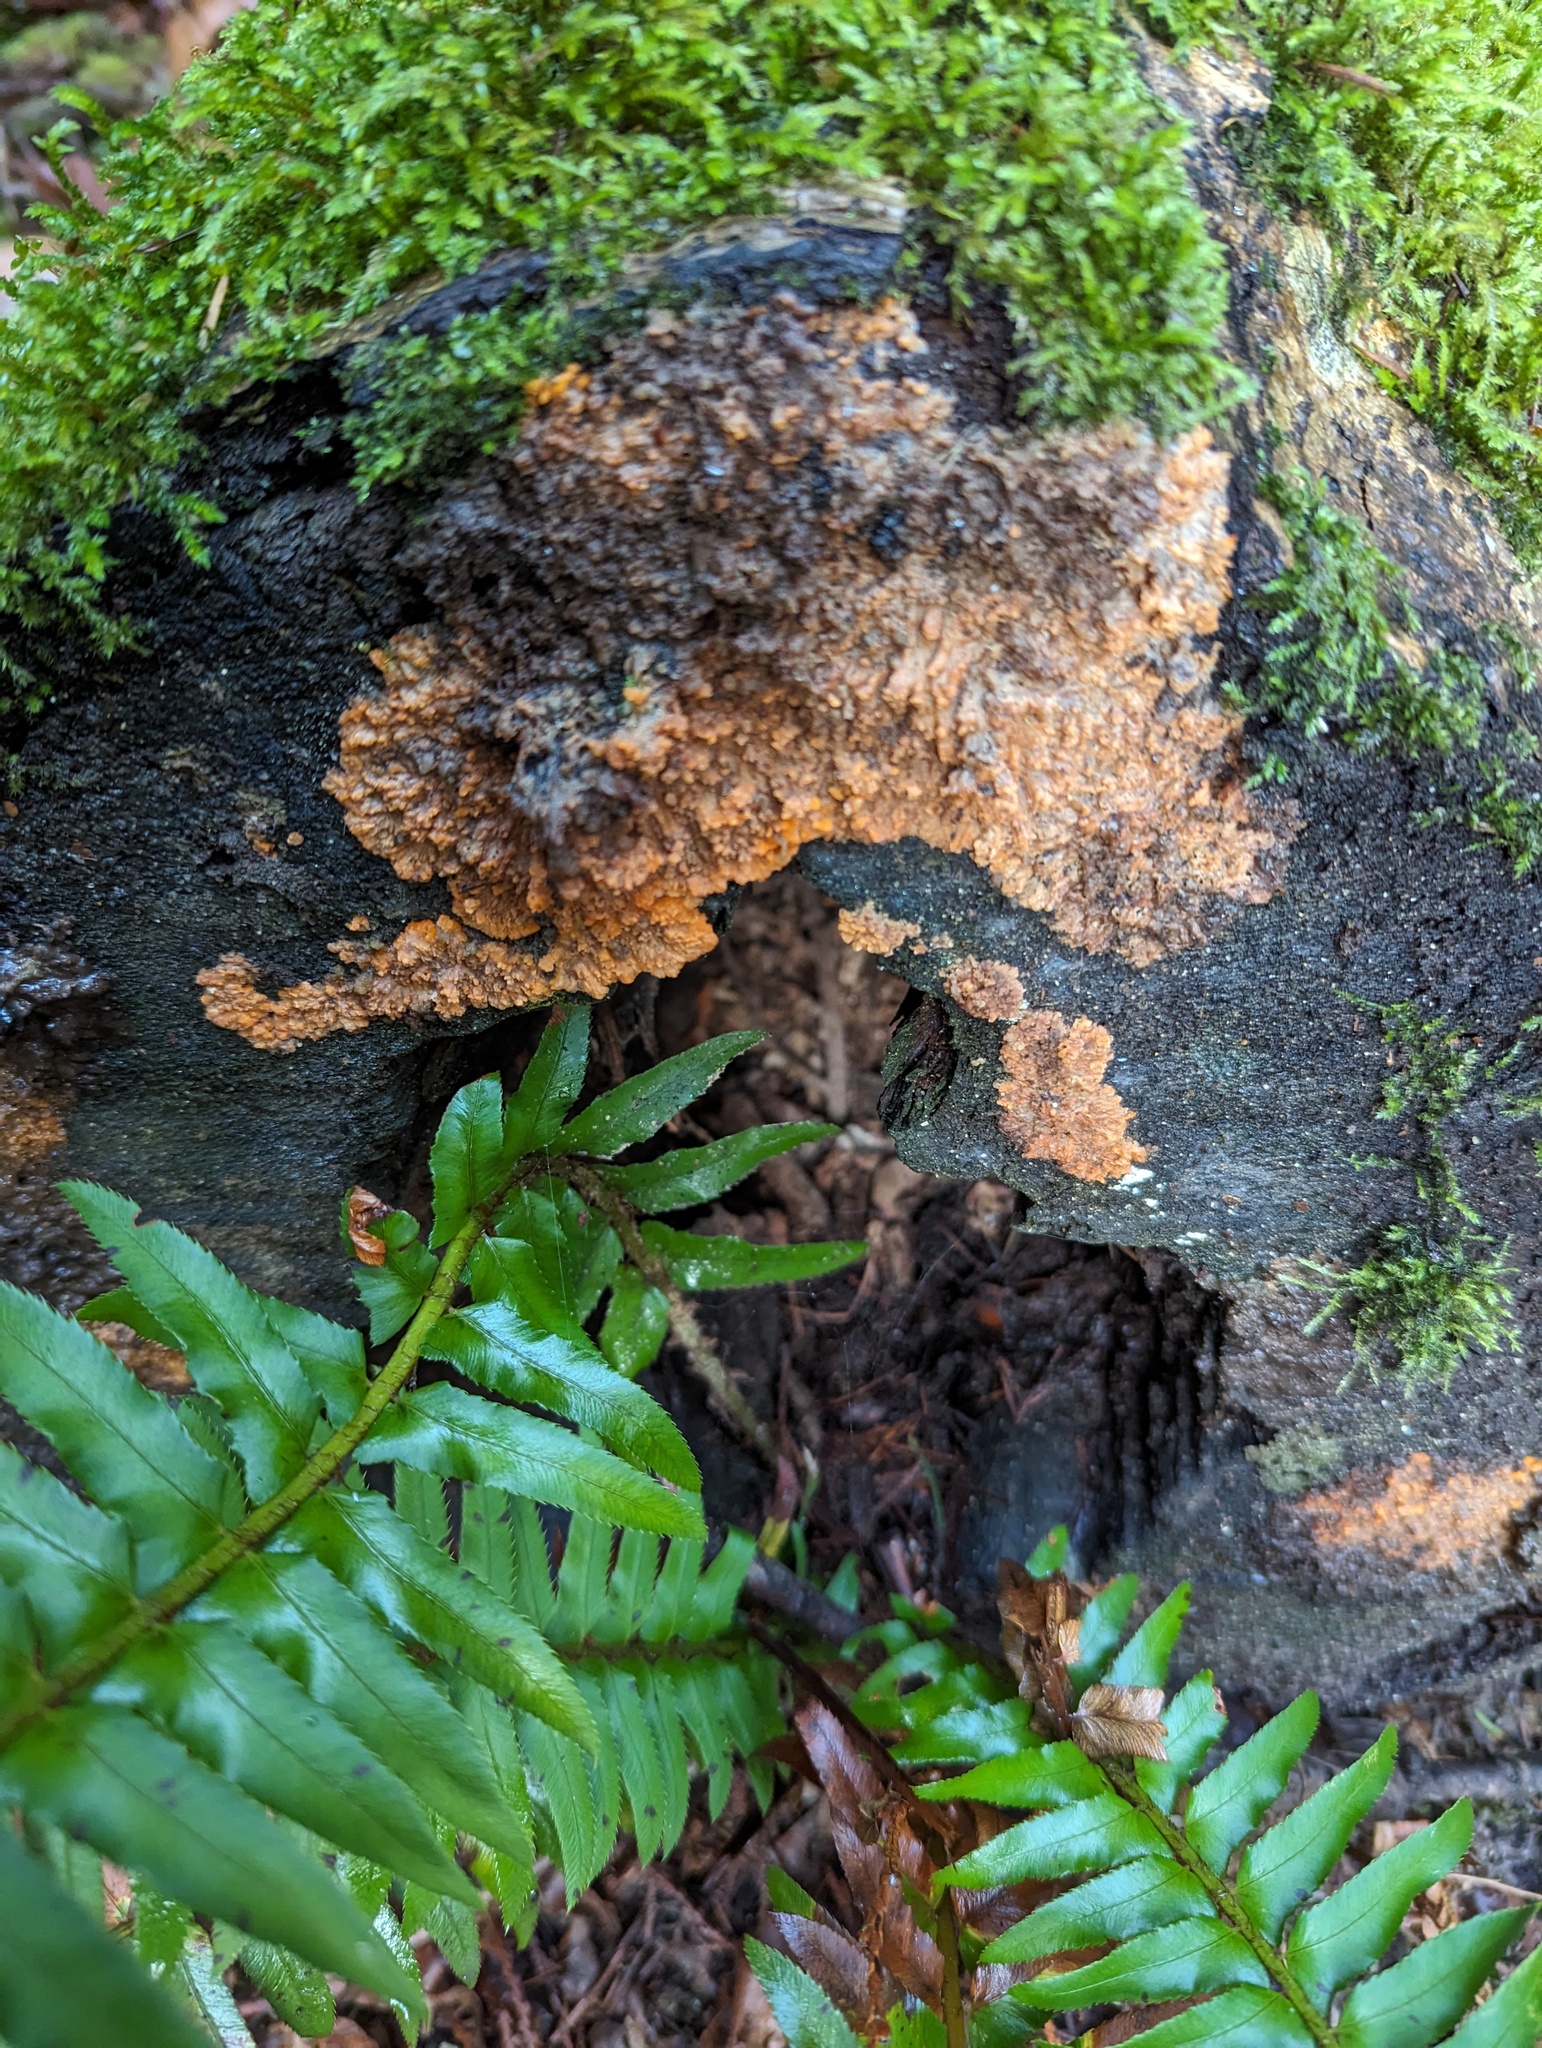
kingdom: Fungi
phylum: Basidiomycota
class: Agaricomycetes
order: Polyporales
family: Meruliaceae
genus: Phlebia
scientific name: Phlebia radiata
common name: Wrinkled crust
